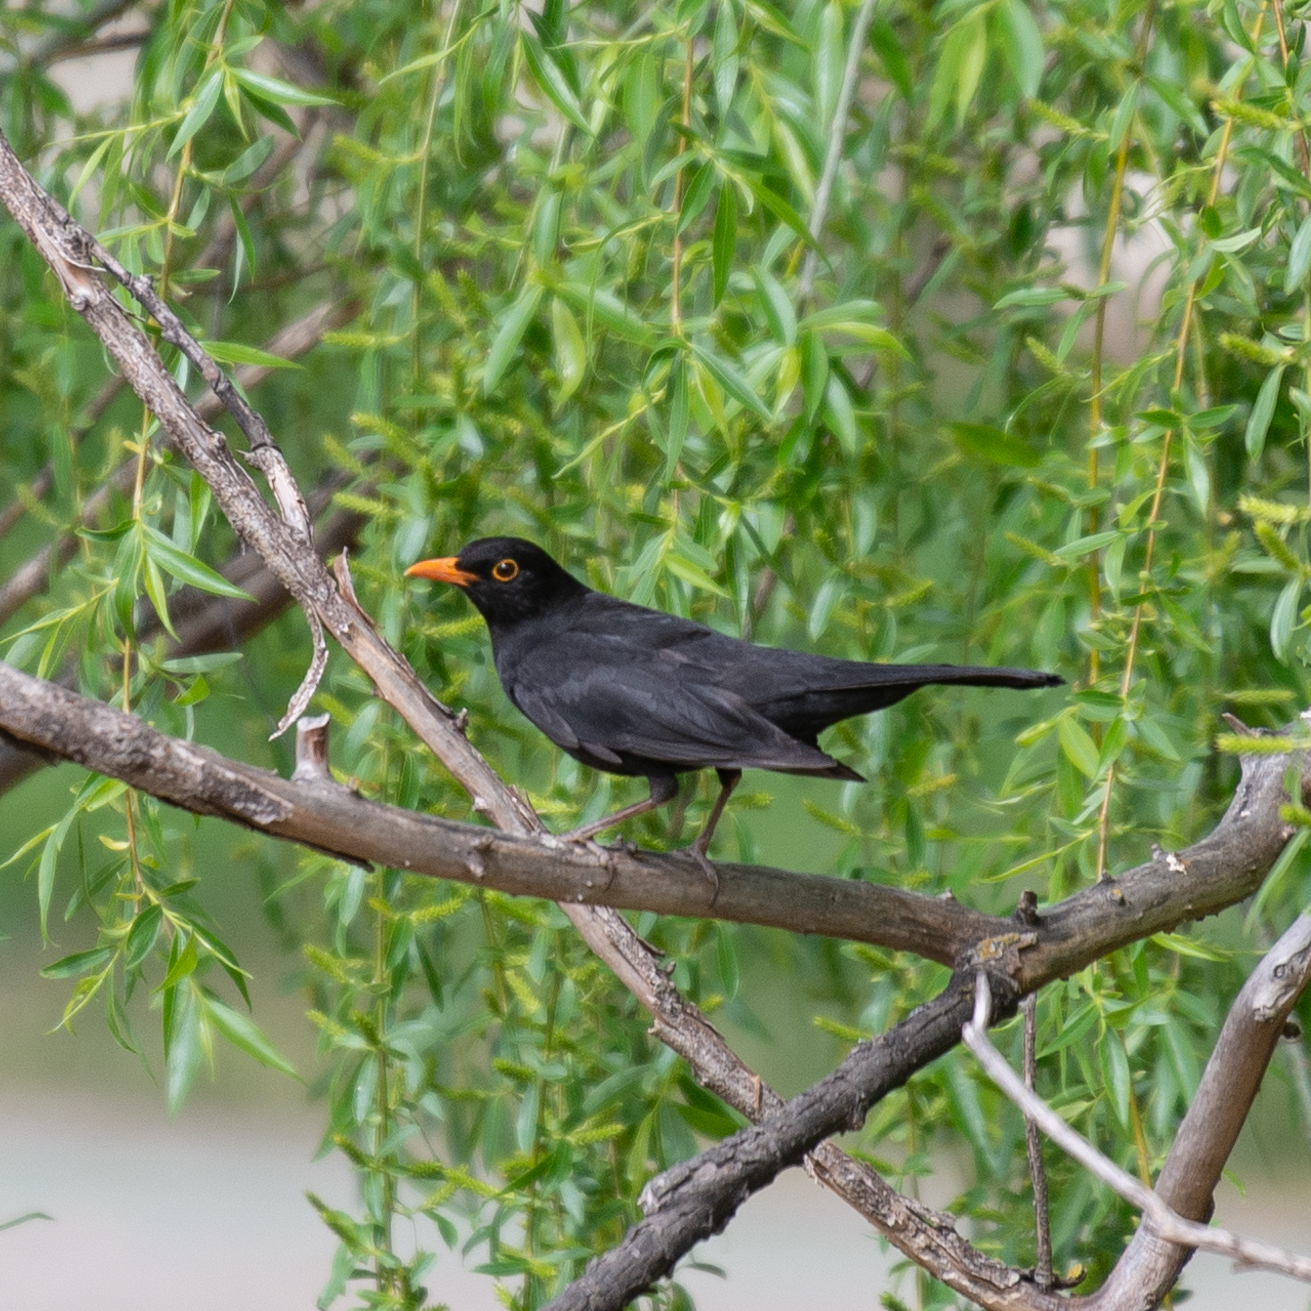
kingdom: Animalia
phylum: Chordata
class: Aves
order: Passeriformes
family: Turdidae
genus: Turdus
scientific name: Turdus merula
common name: Common blackbird
